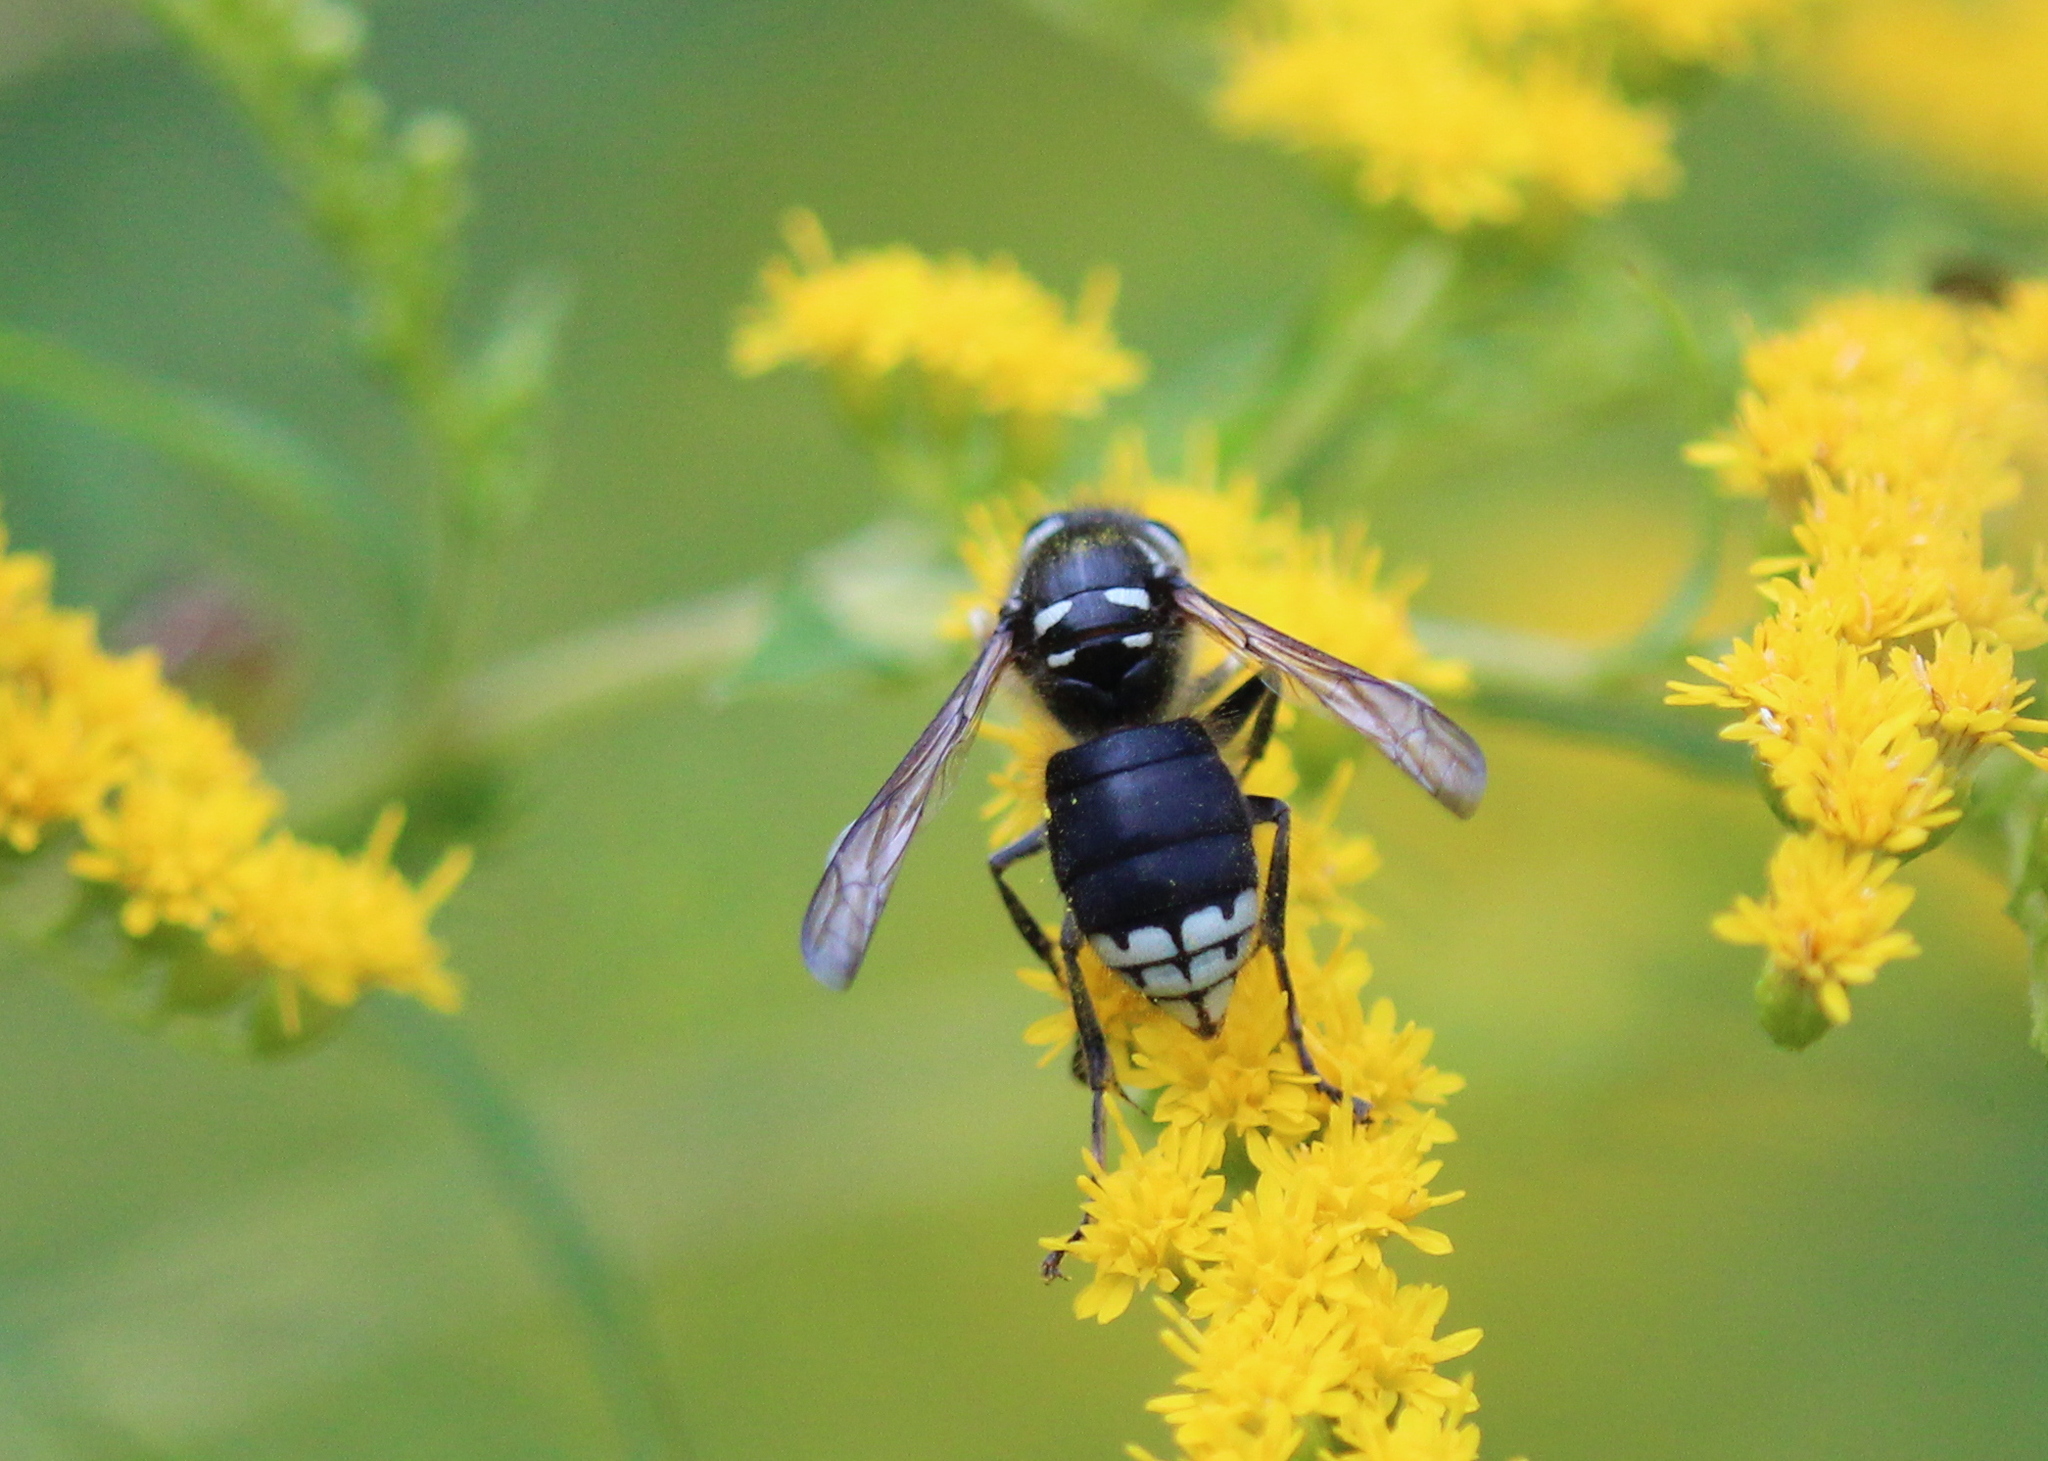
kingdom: Animalia
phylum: Arthropoda
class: Insecta
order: Hymenoptera
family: Vespidae
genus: Dolichovespula
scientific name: Dolichovespula maculata
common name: Bald-faced hornet
